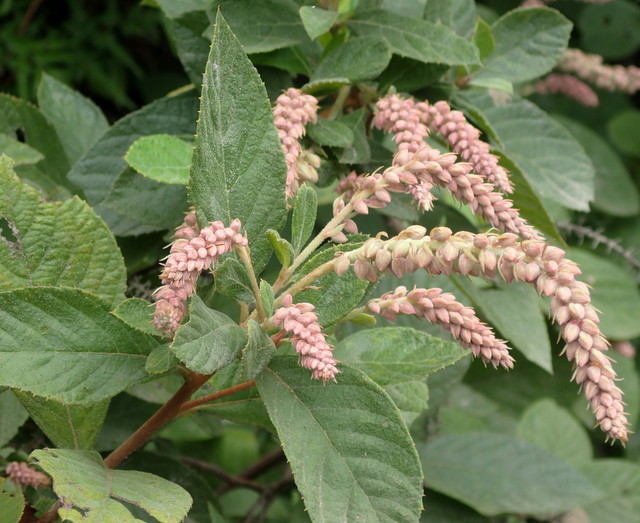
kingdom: Plantae
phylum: Tracheophyta
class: Magnoliopsida
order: Ericales
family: Clethraceae
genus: Clethra
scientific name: Clethra tomentosa
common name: Downy sweet pepperbush
